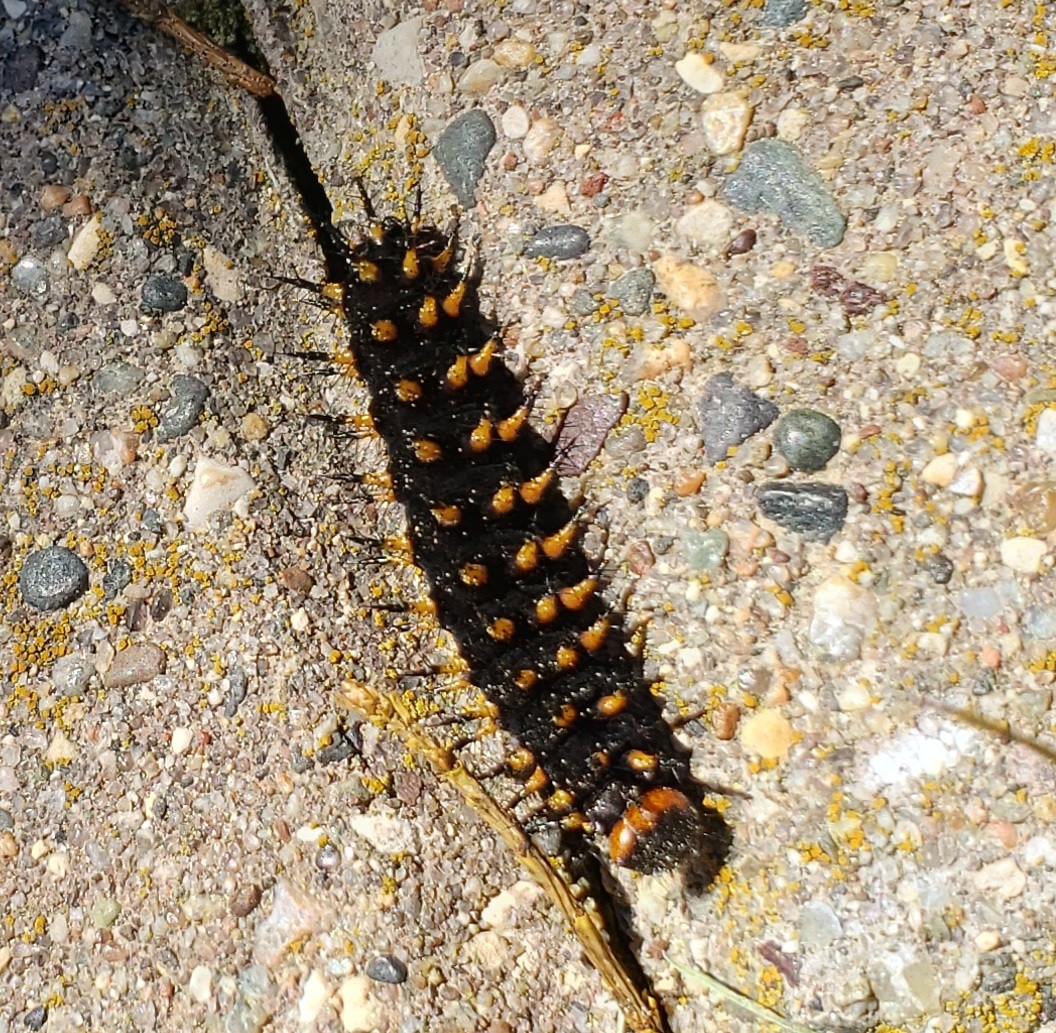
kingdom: Animalia
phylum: Arthropoda
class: Insecta
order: Lepidoptera
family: Nymphalidae
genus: Speyeria
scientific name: Speyeria cybele
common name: Great spangled fritillary
